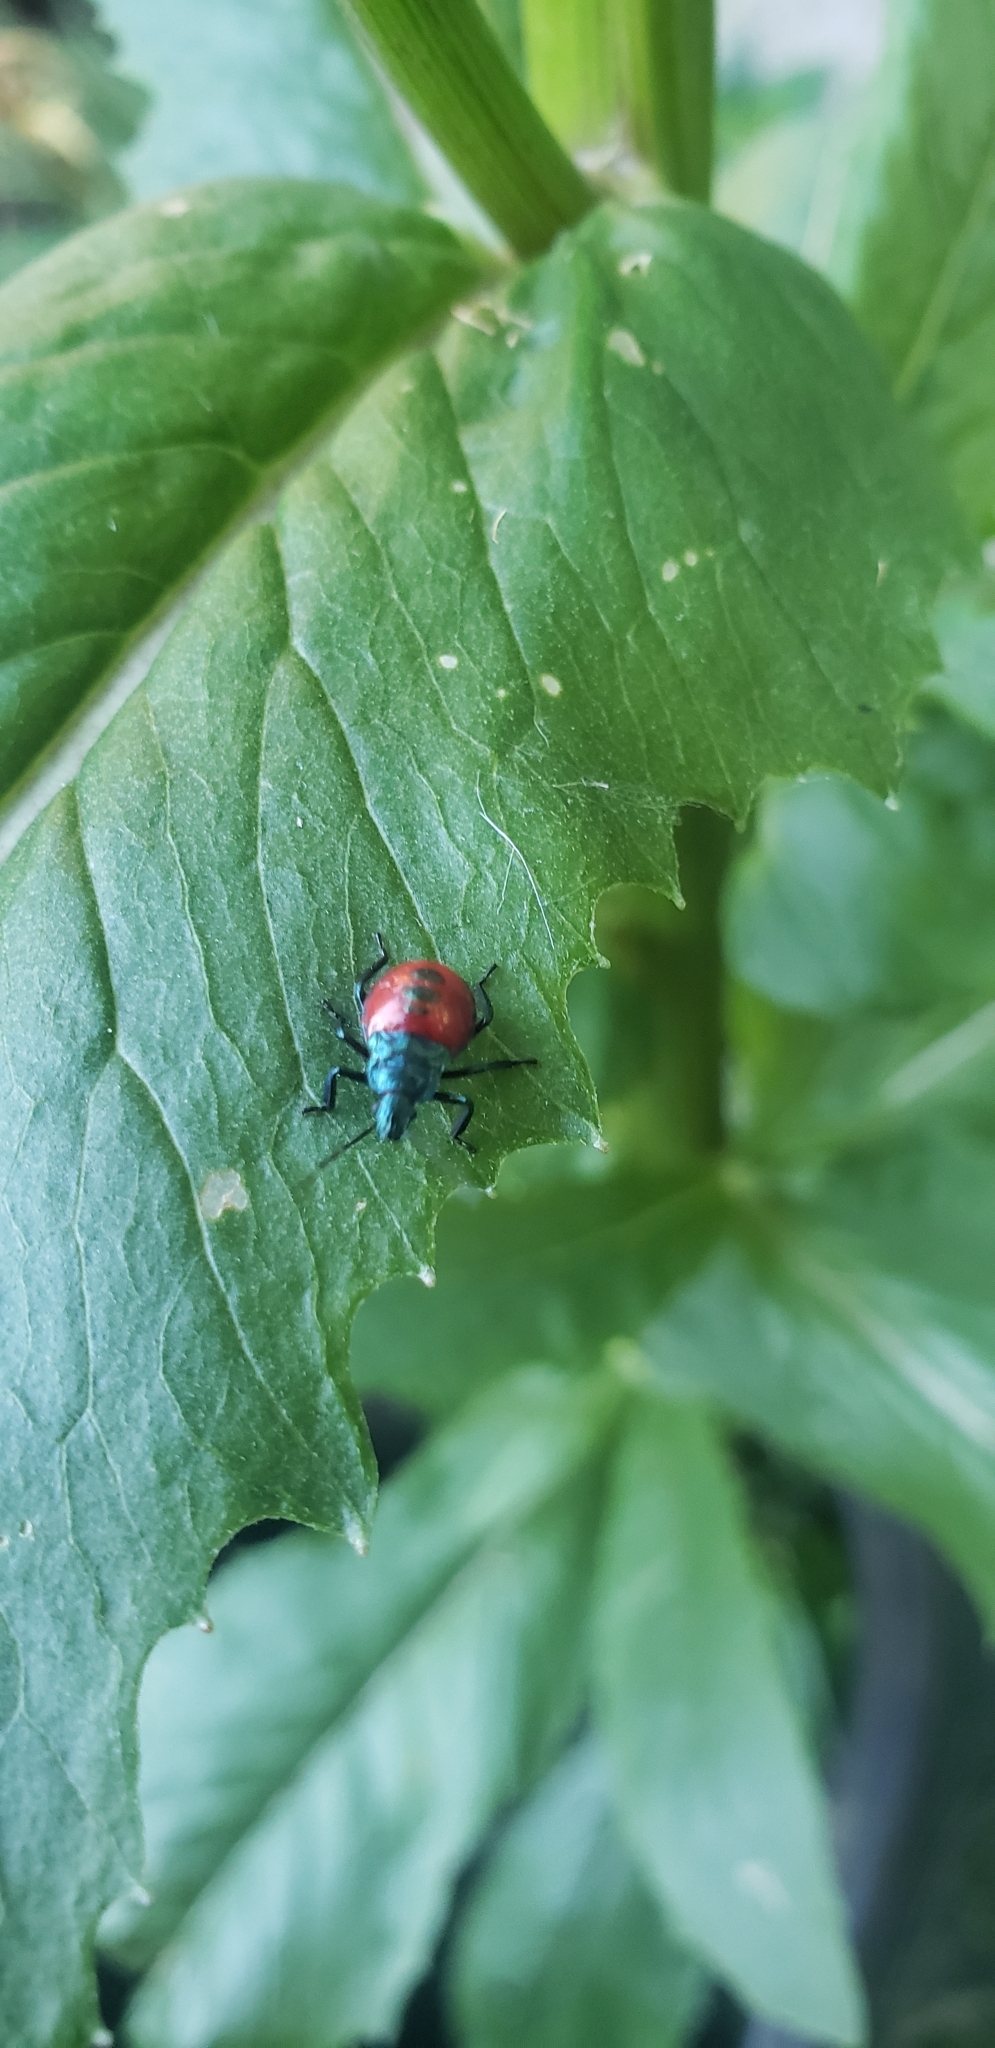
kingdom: Animalia
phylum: Arthropoda
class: Insecta
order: Hemiptera
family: Pentatomidae
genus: Euthyrhynchus
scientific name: Euthyrhynchus floridanus
